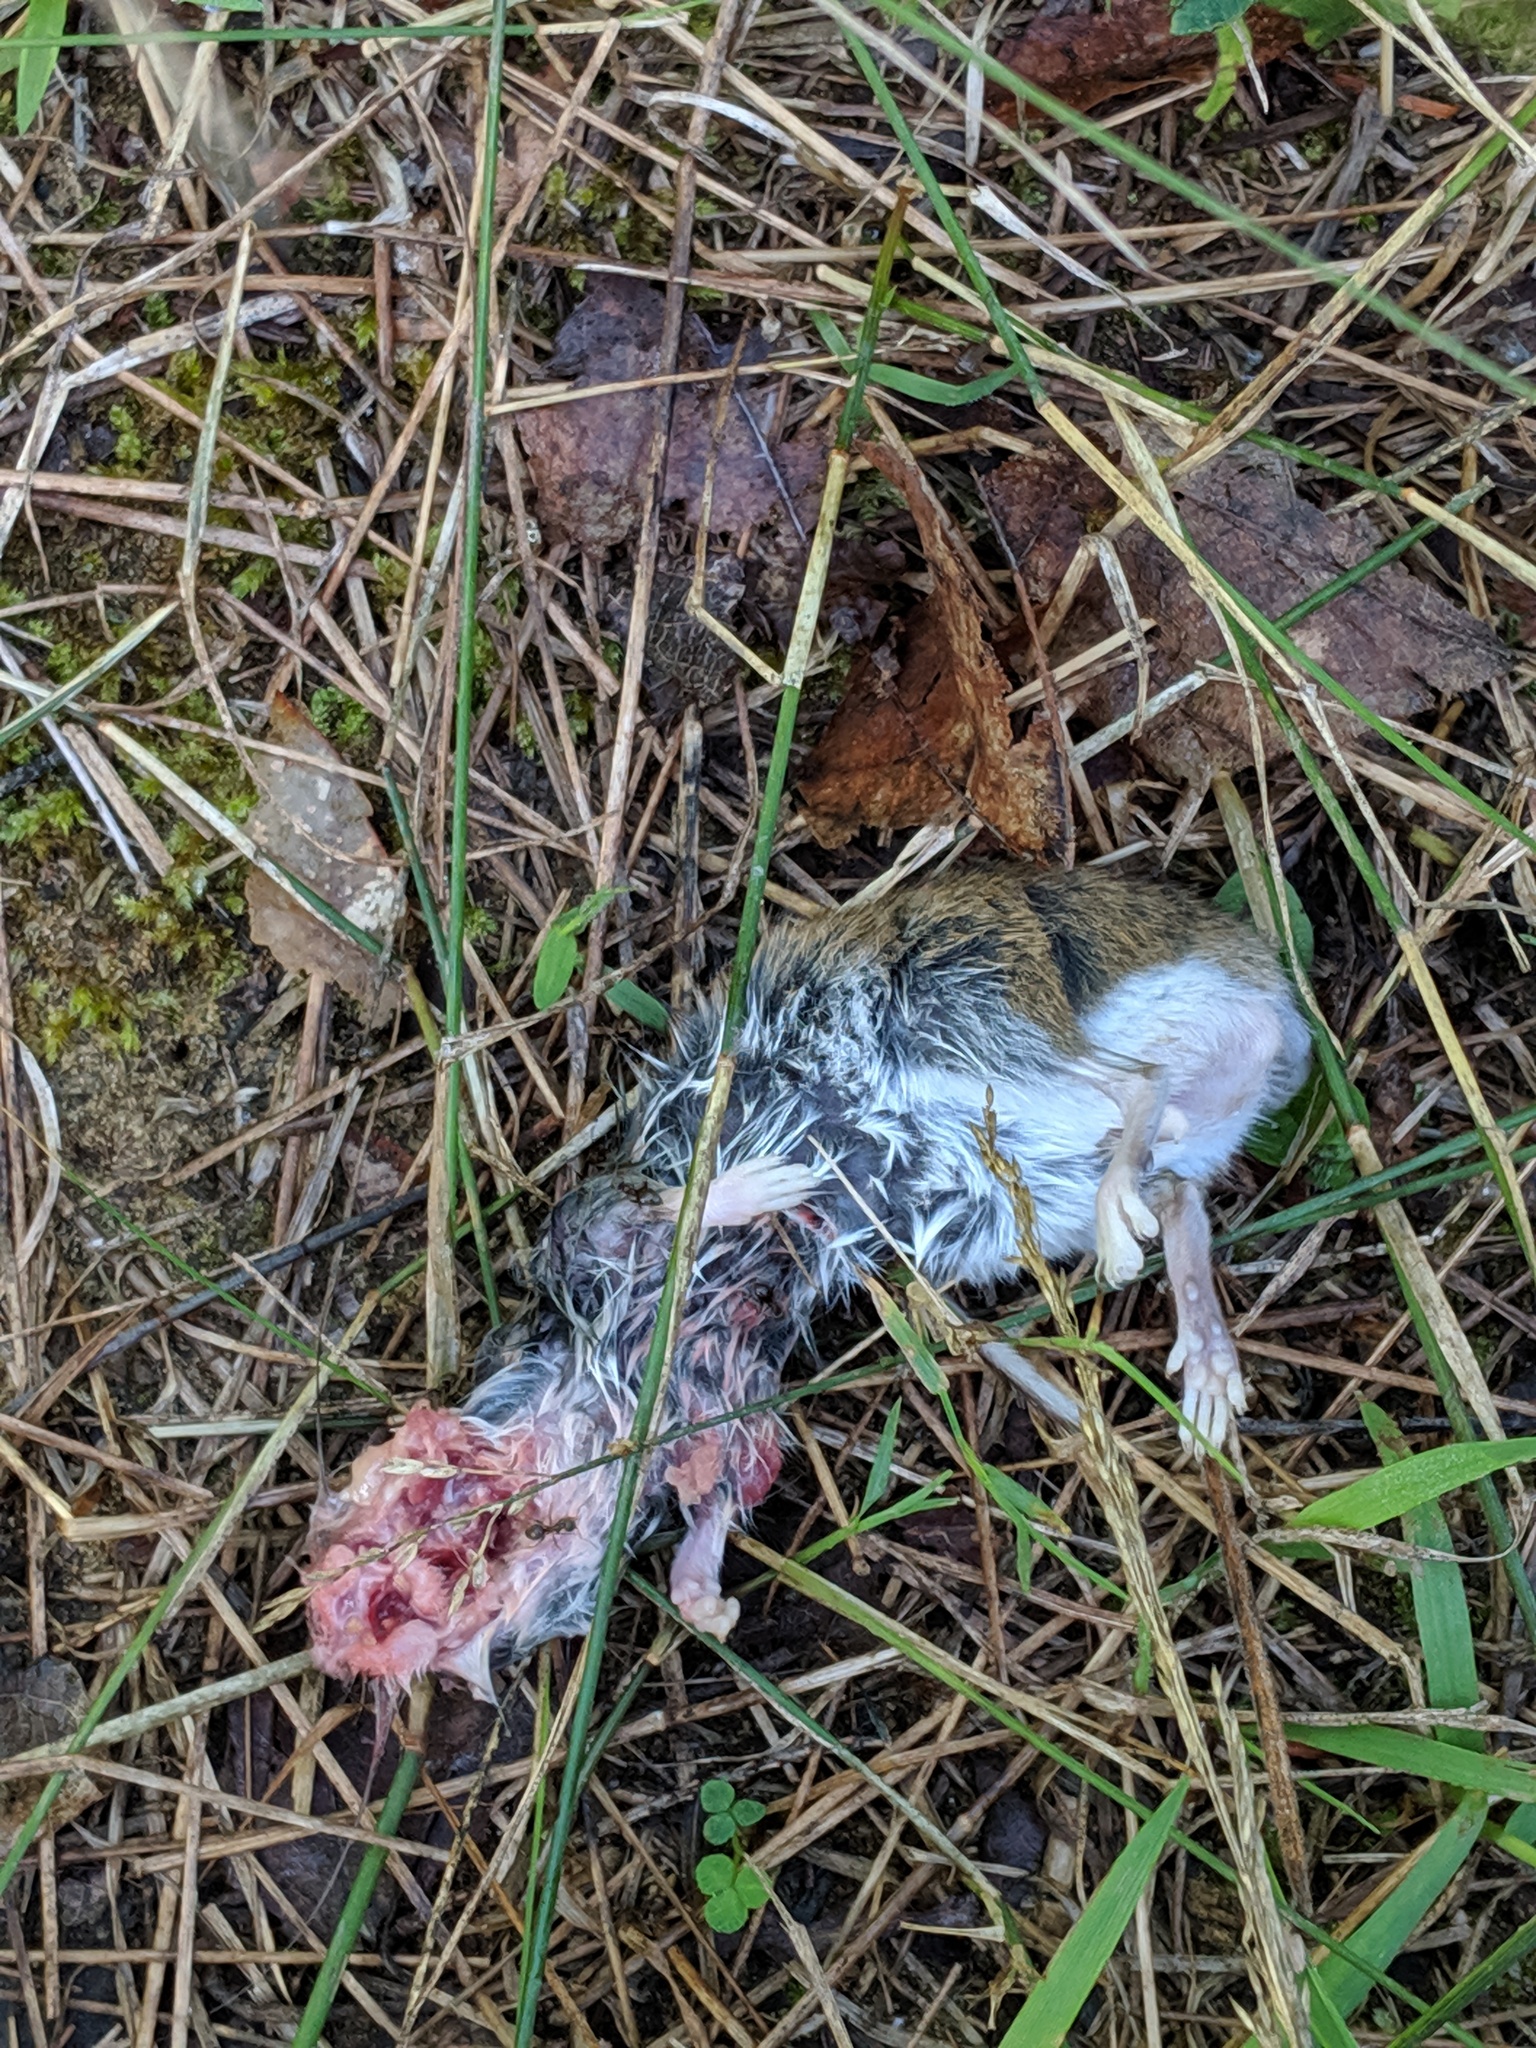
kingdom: Animalia
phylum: Chordata
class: Mammalia
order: Rodentia
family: Cricetidae
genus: Peromyscus
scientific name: Peromyscus
